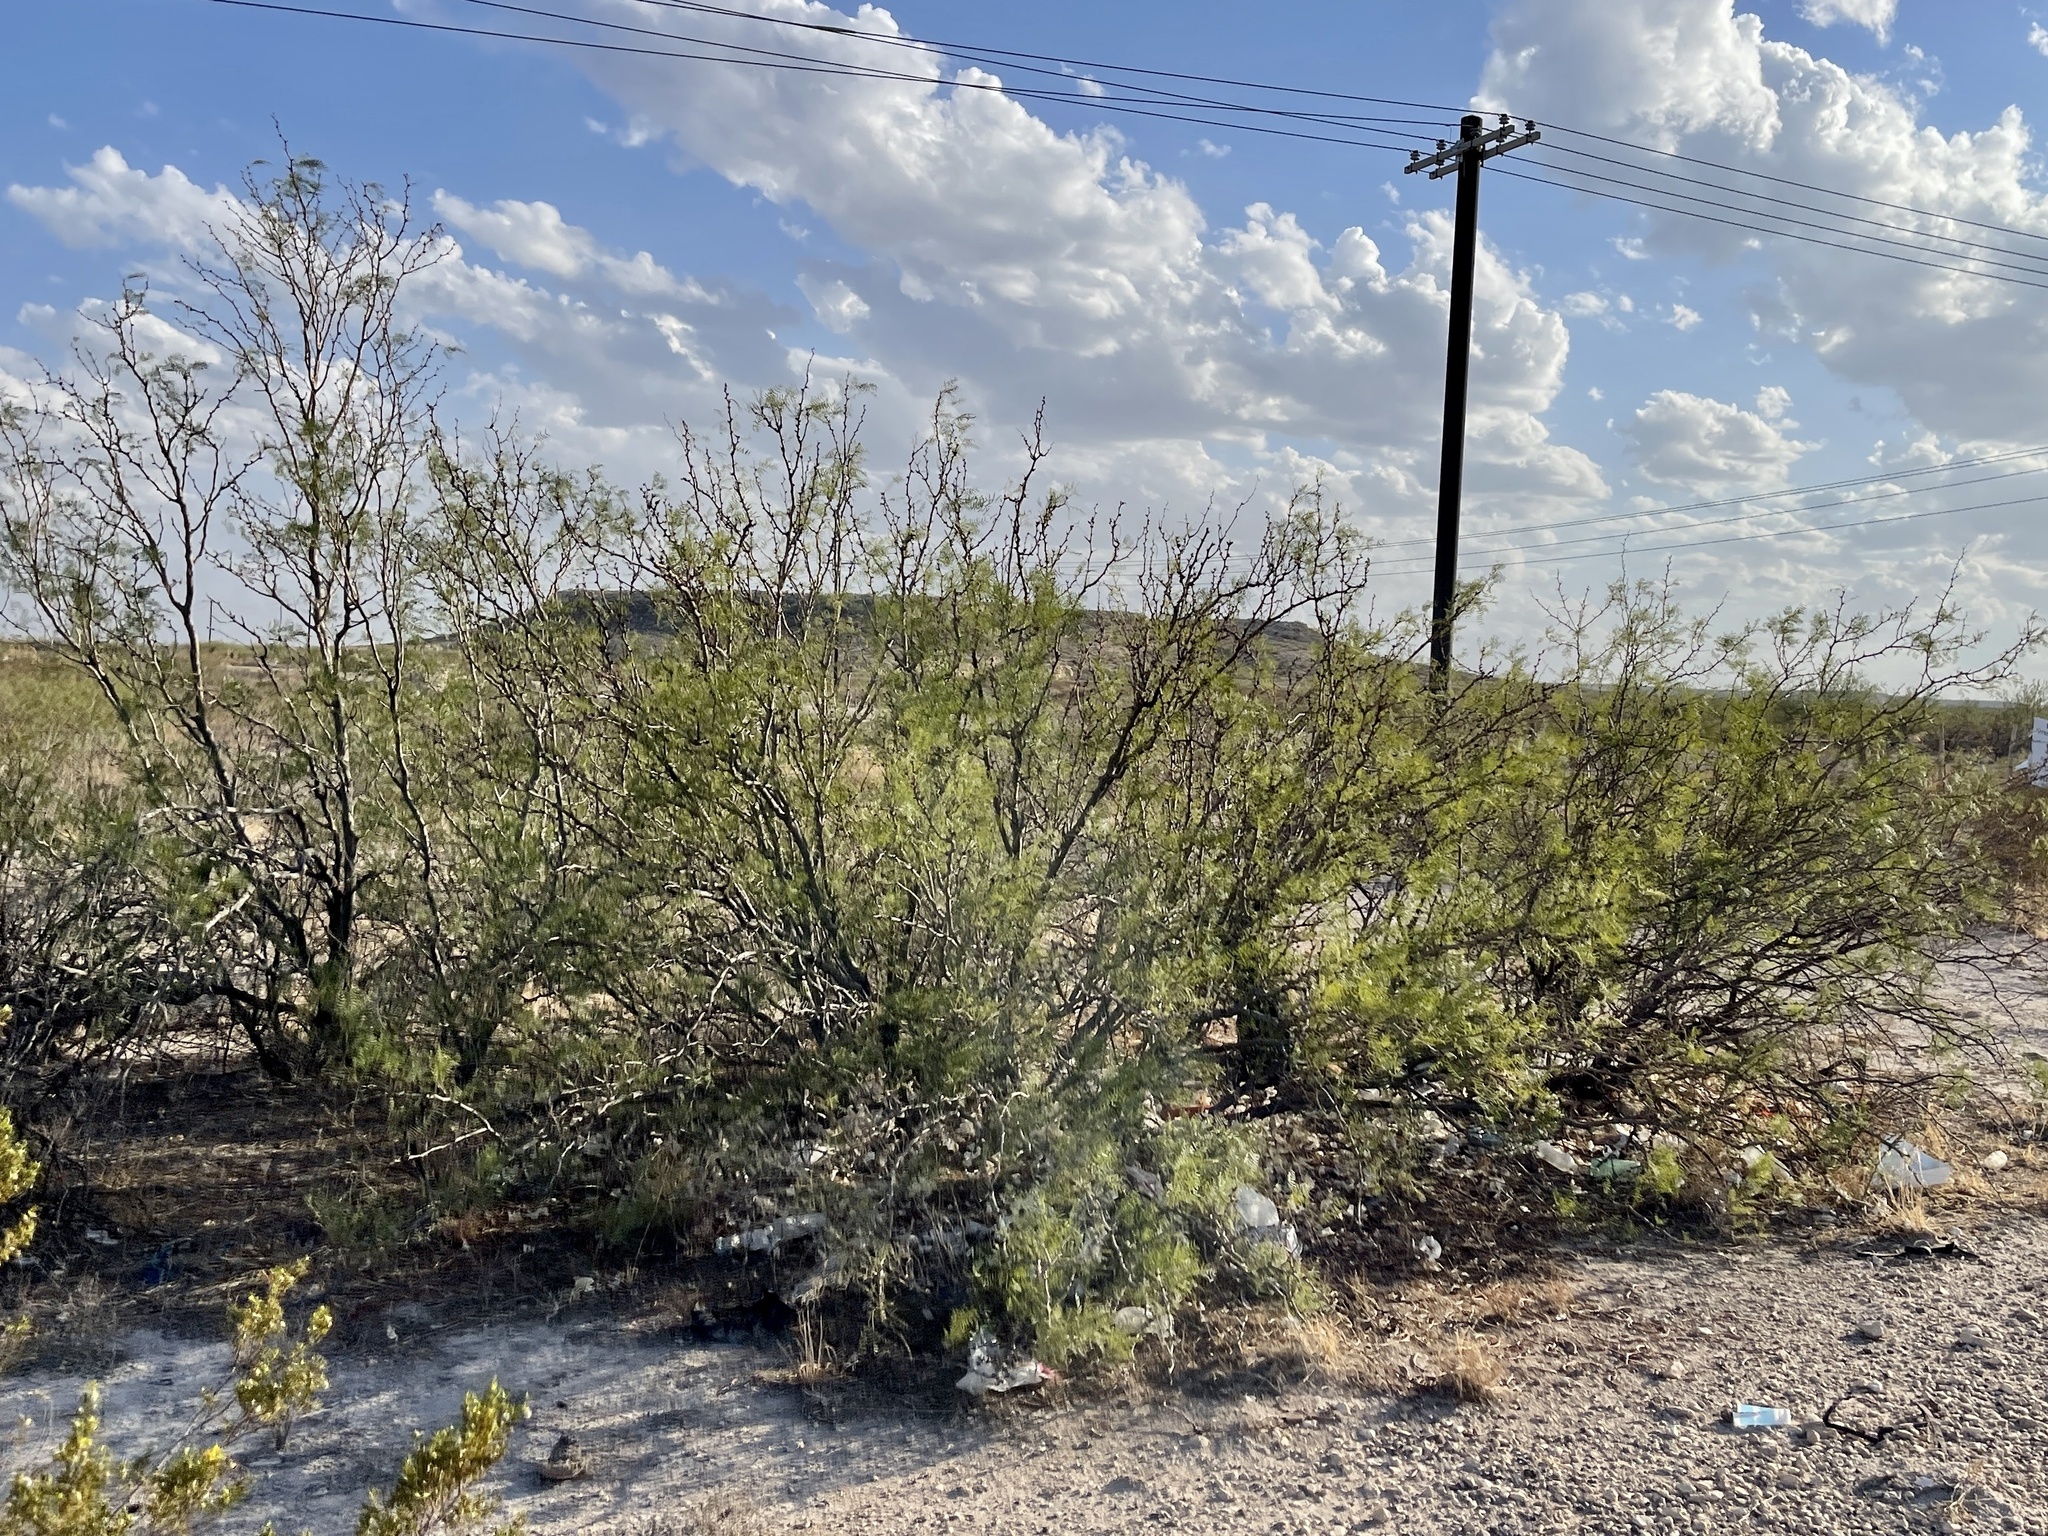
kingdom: Plantae
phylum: Tracheophyta
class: Magnoliopsida
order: Fabales
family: Fabaceae
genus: Prosopis
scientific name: Prosopis glandulosa
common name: Honey mesquite
